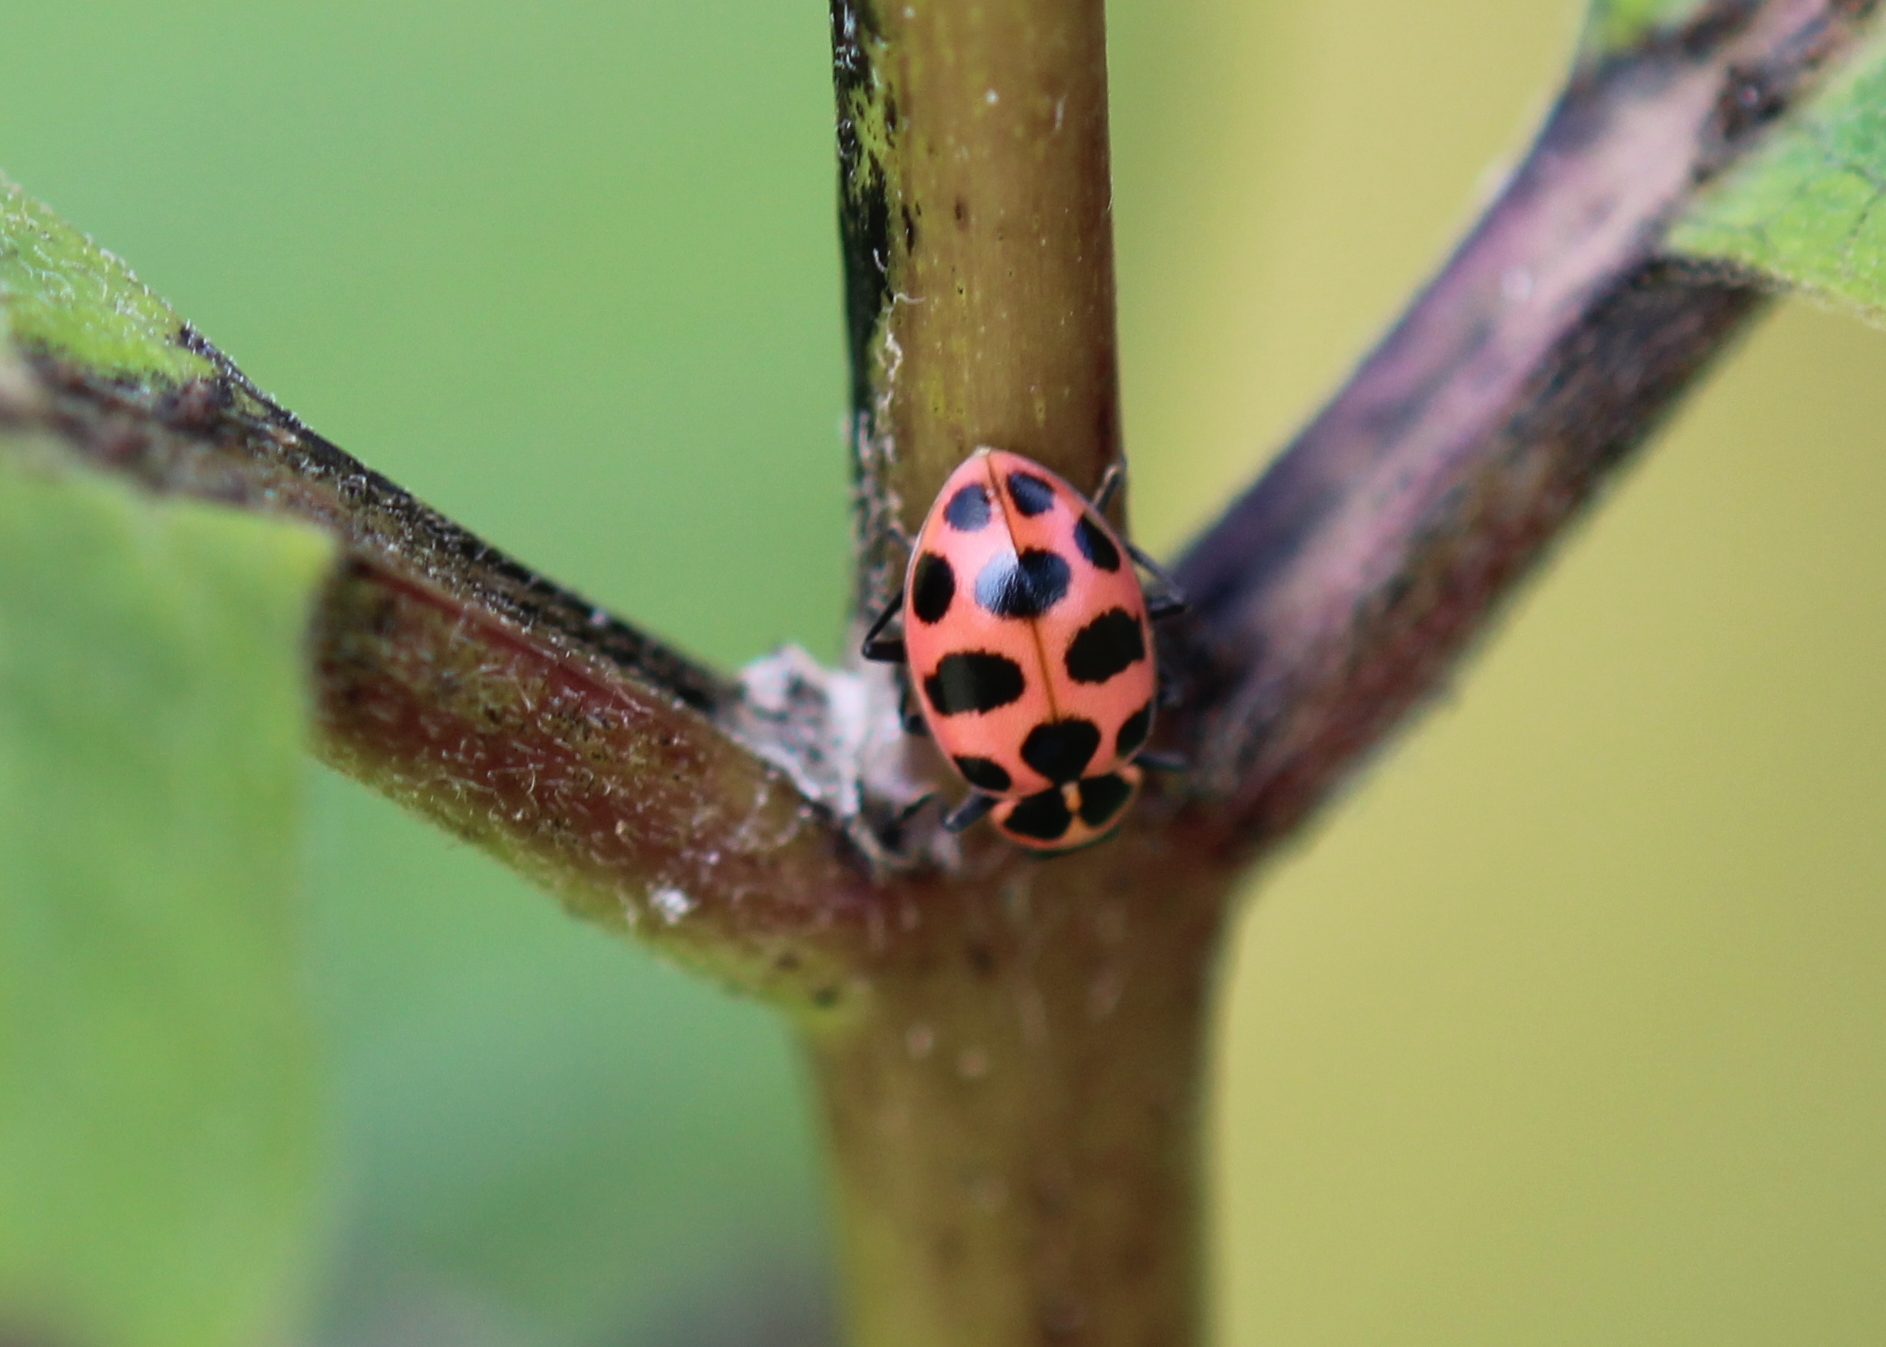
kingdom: Animalia
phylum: Arthropoda
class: Insecta
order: Coleoptera
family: Coccinellidae
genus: Coleomegilla
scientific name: Coleomegilla maculata
